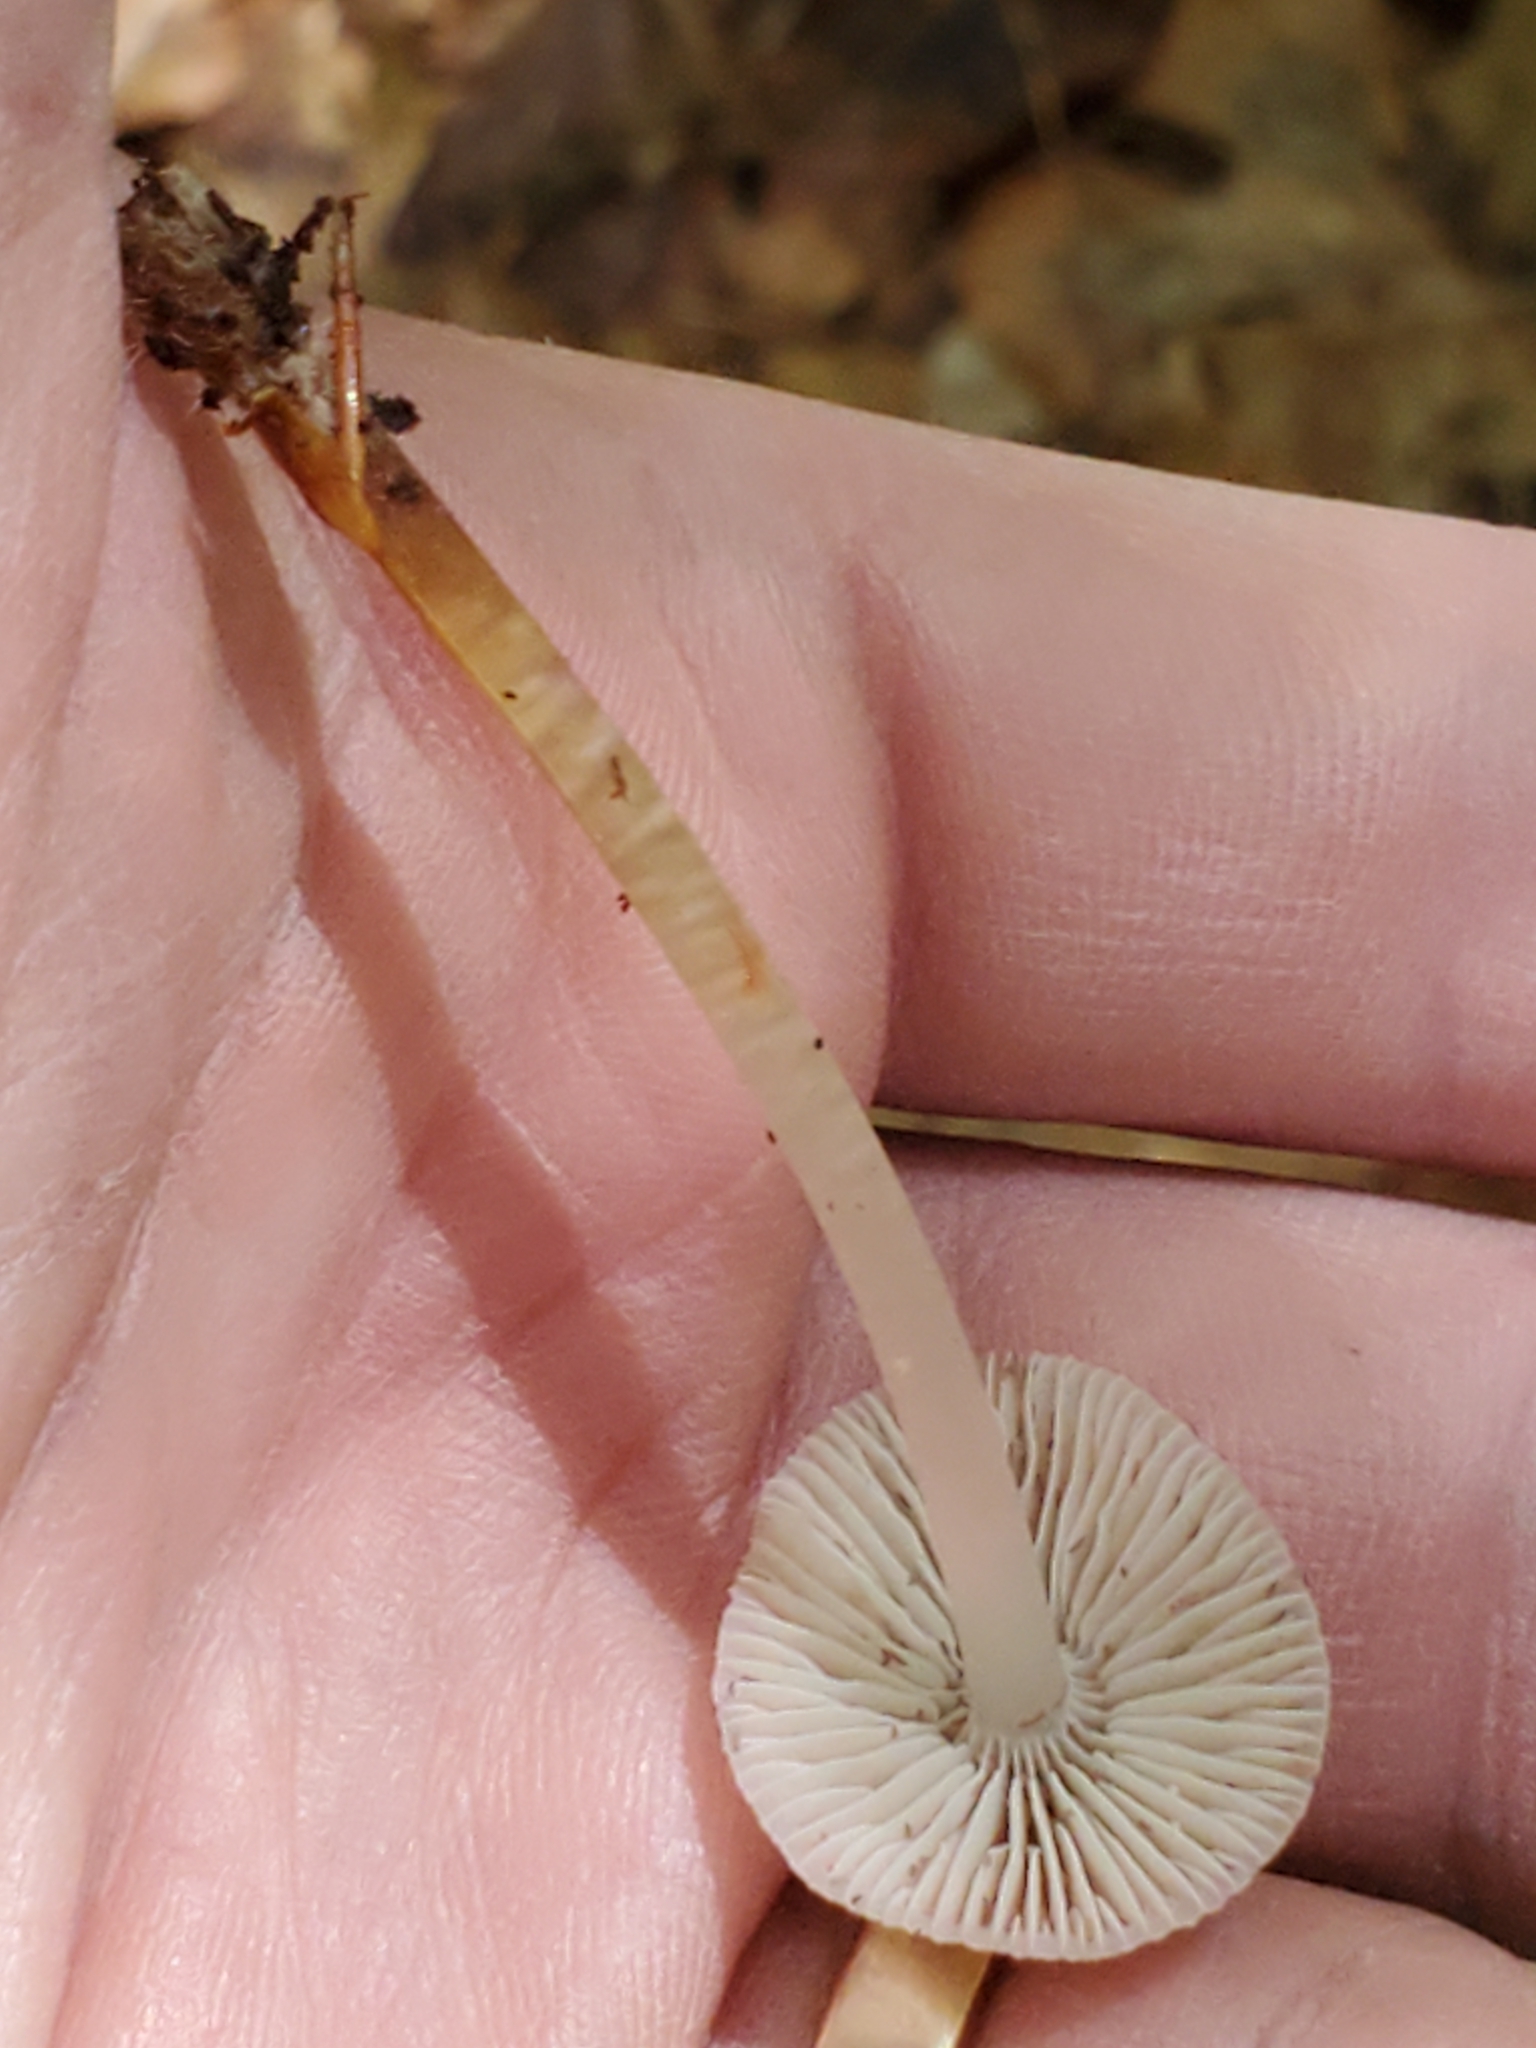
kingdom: Fungi
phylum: Basidiomycota
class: Agaricomycetes
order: Agaricales
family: Mycenaceae
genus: Mycena
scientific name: Mycena galericulata
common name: Bonnet mycena
